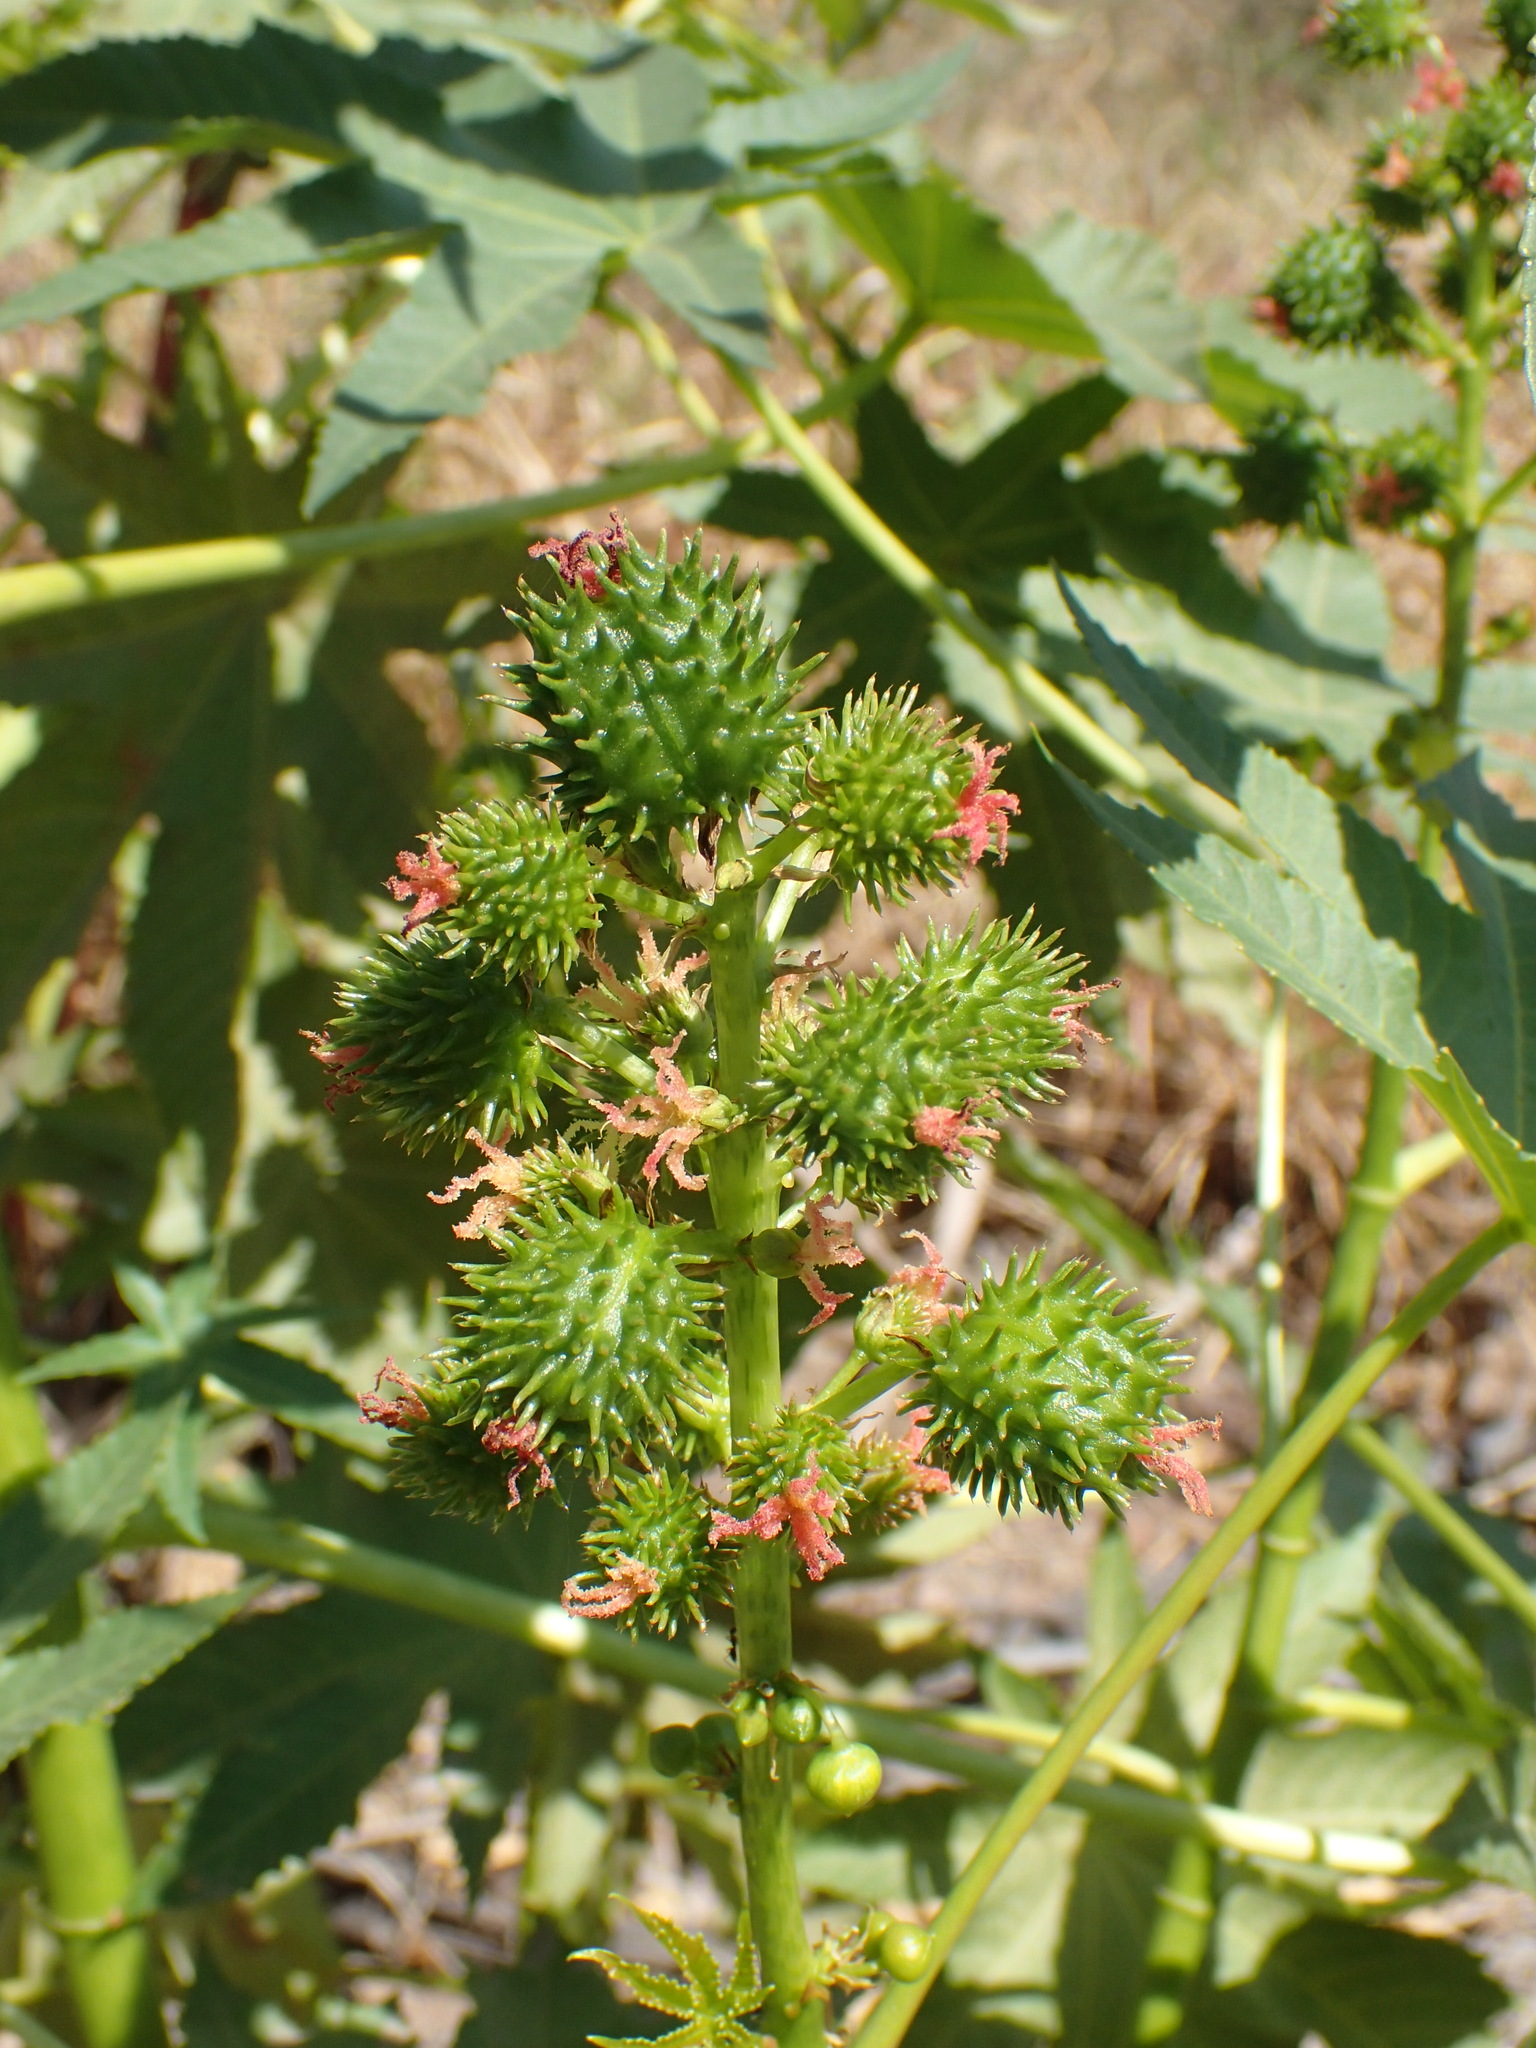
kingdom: Plantae
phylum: Tracheophyta
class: Magnoliopsida
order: Malpighiales
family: Euphorbiaceae
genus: Ricinus
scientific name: Ricinus communis
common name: Castor-oil-plant
